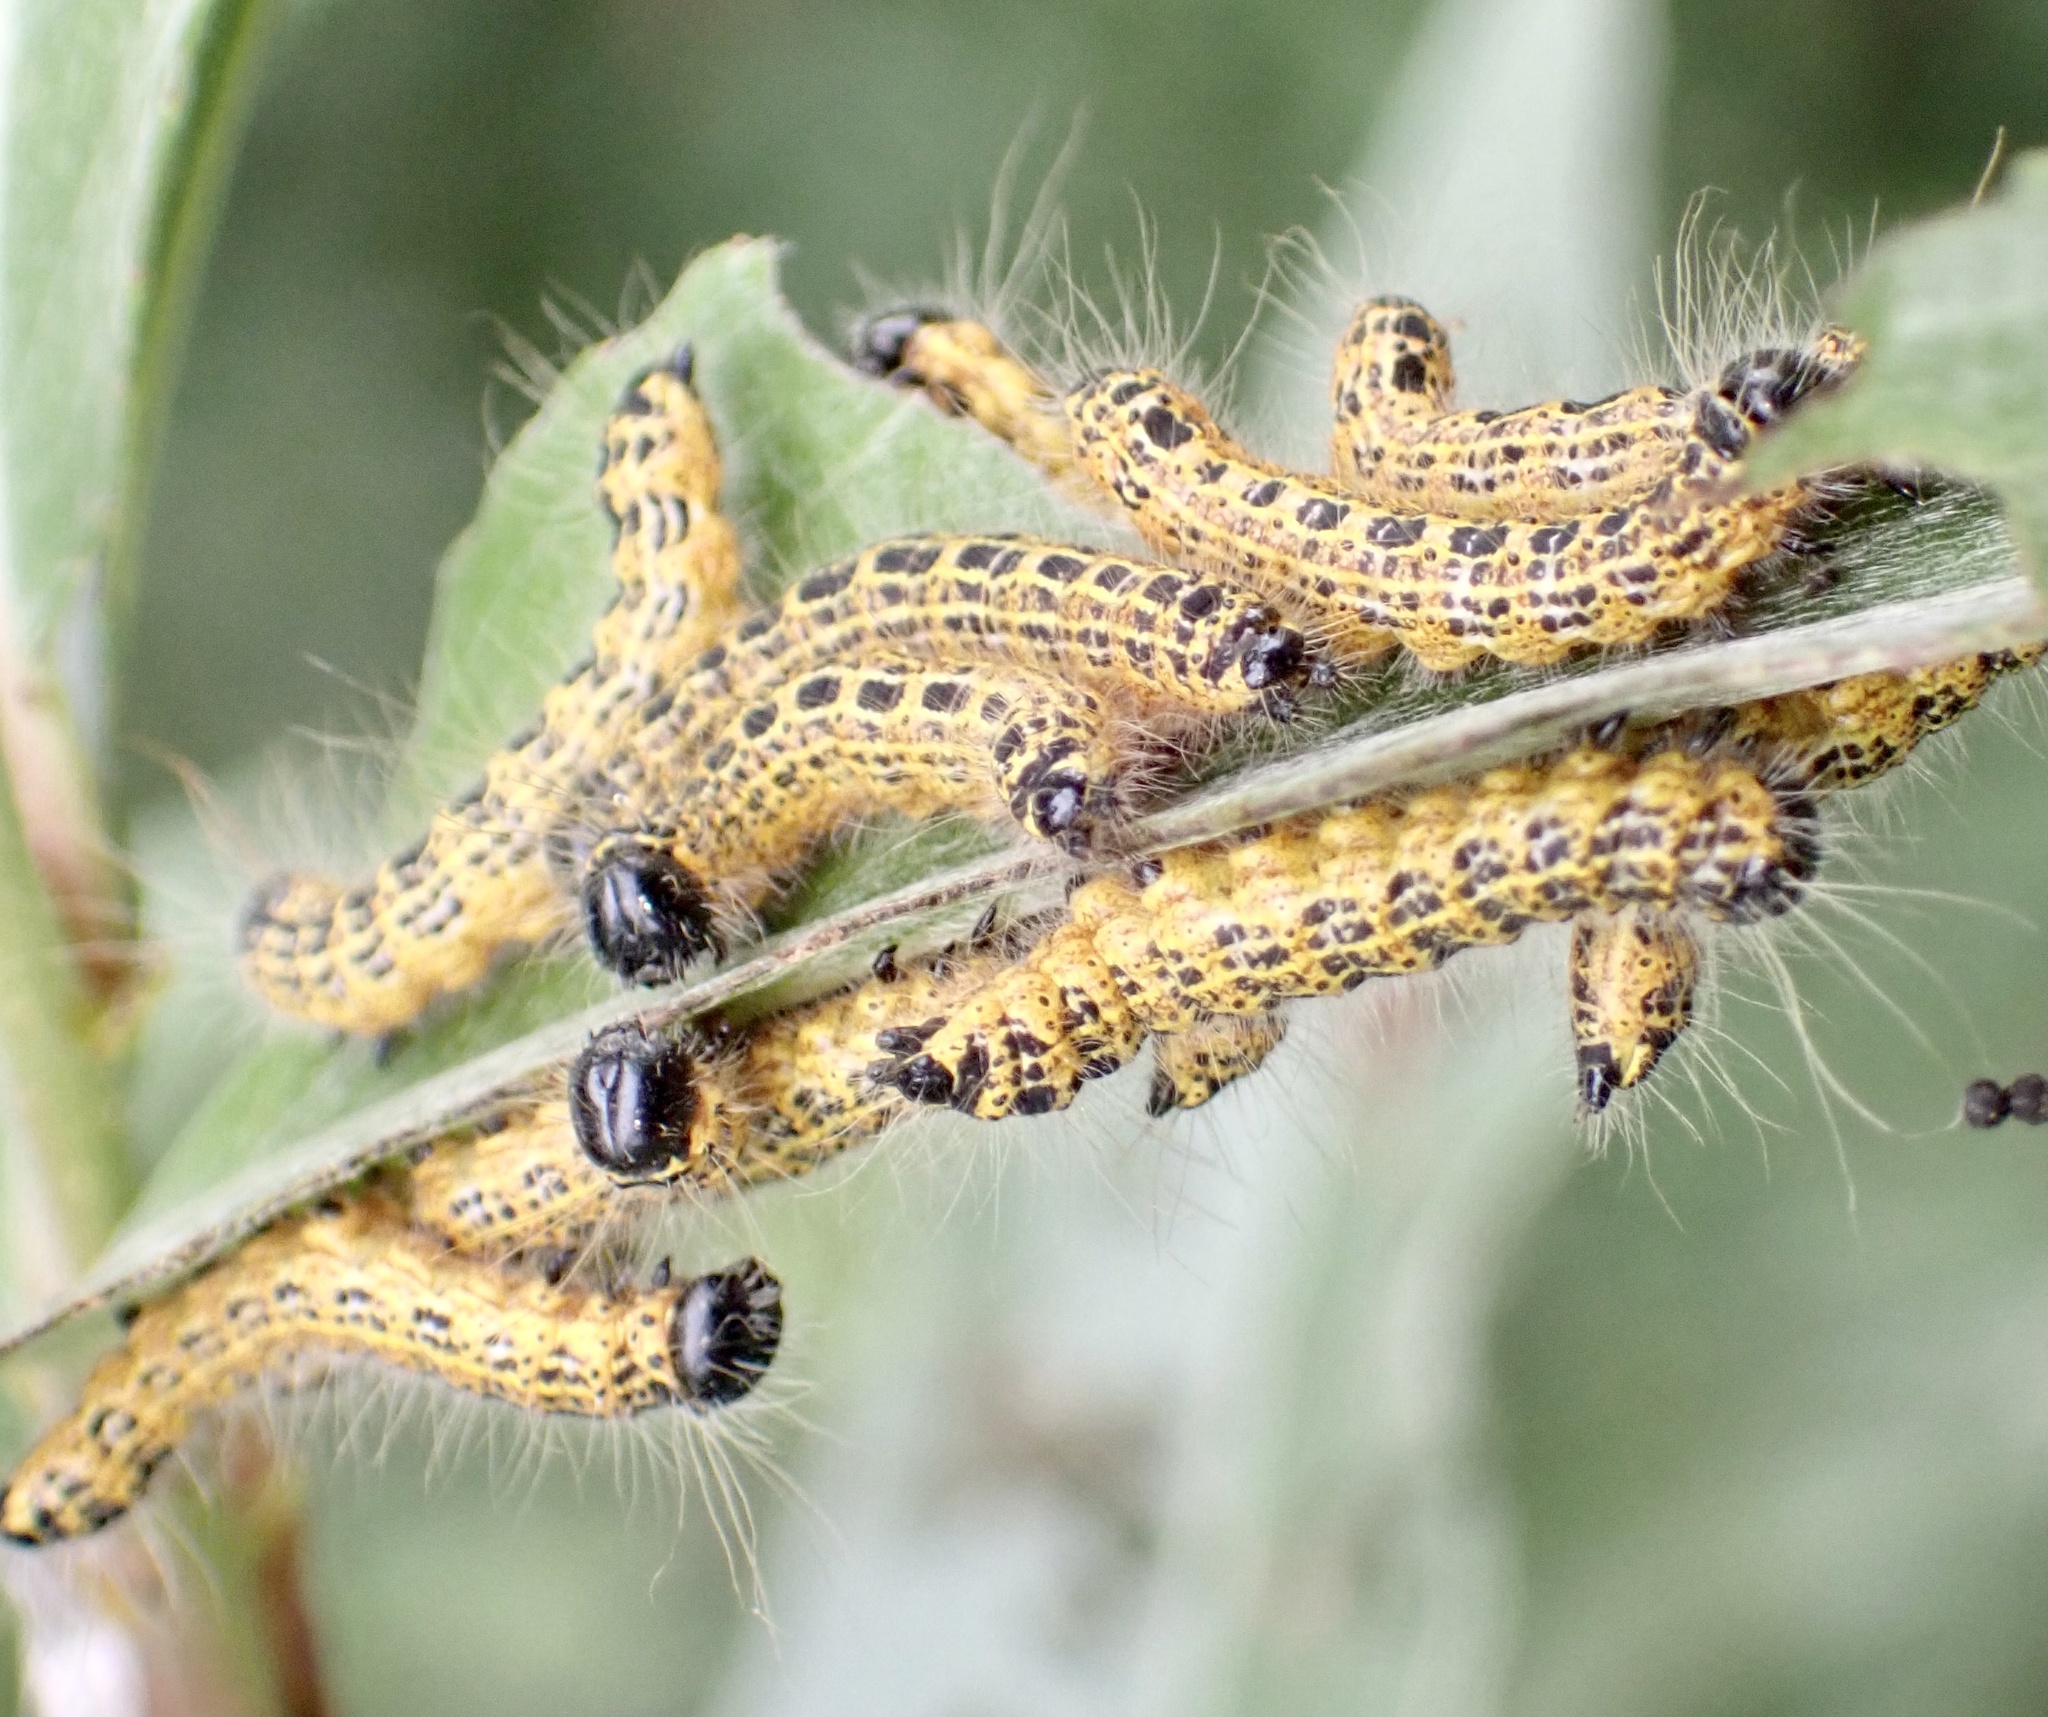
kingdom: Animalia
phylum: Arthropoda
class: Insecta
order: Lepidoptera
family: Notodontidae
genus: Phalera
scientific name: Phalera bucephala
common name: Buff-tip
